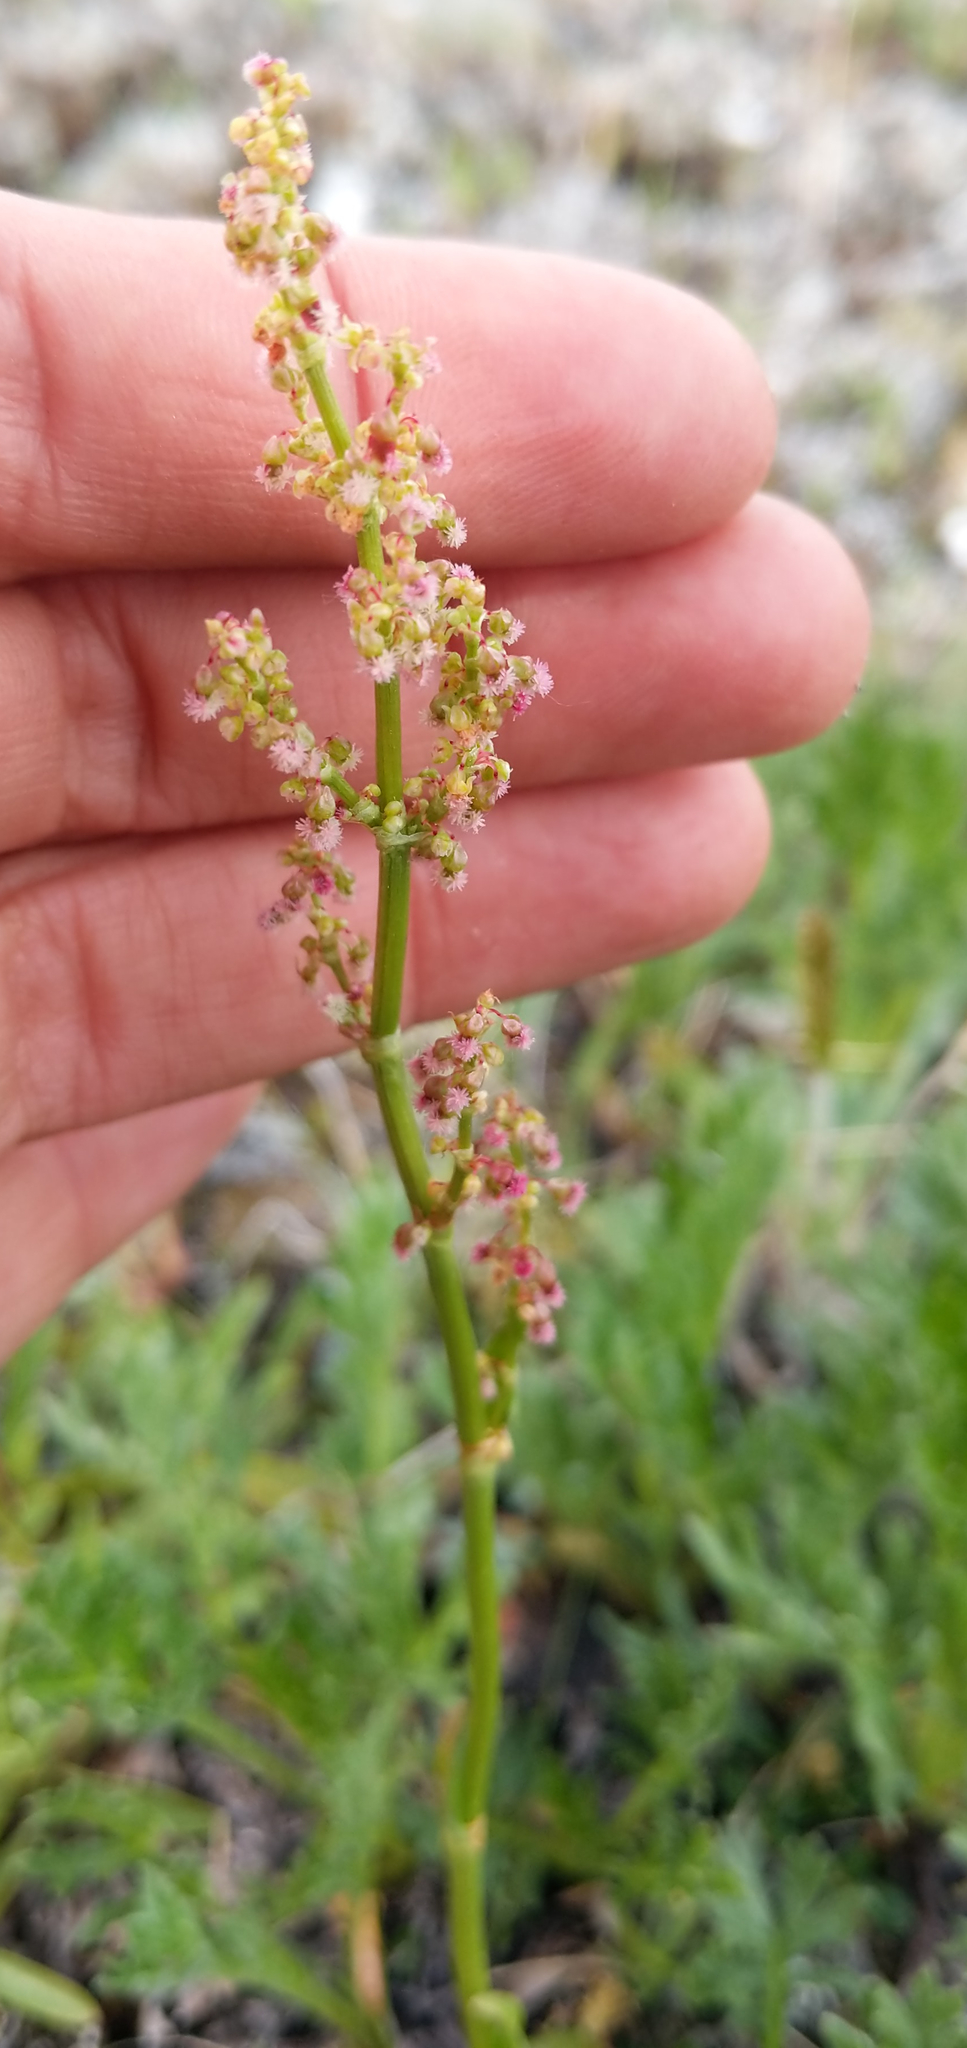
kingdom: Plantae
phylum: Tracheophyta
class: Magnoliopsida
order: Caryophyllales
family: Polygonaceae
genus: Rumex
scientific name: Rumex lapponicus
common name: Lapland mountain sorrel
